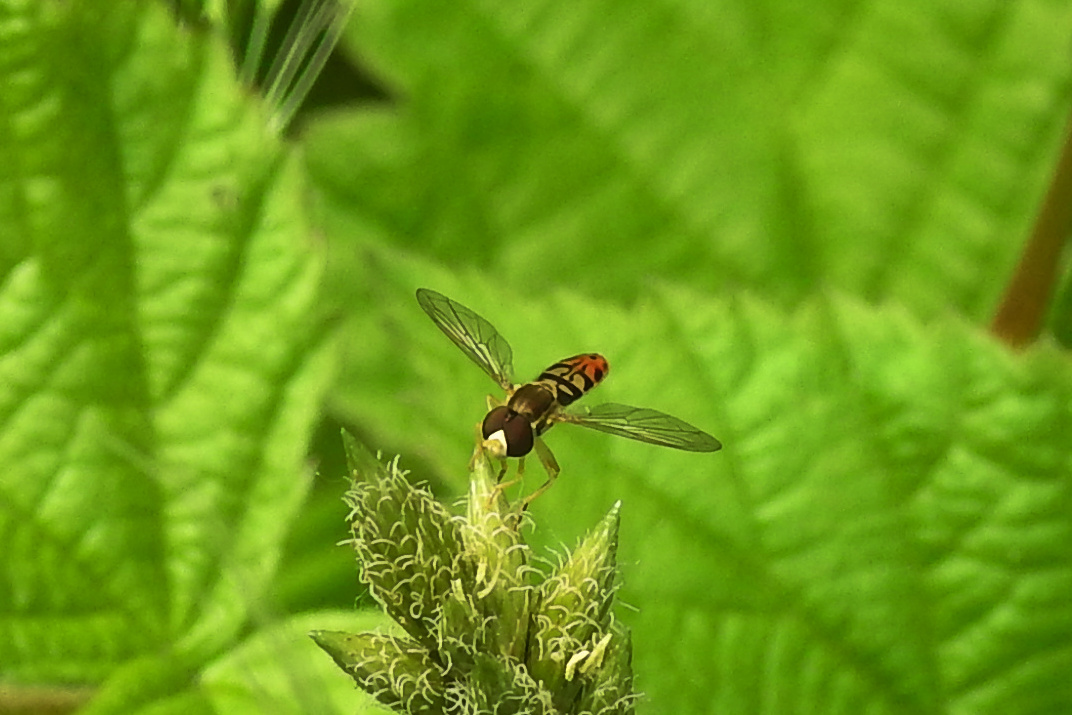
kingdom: Animalia
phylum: Arthropoda
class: Insecta
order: Diptera
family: Syrphidae
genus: Toxomerus
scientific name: Toxomerus marginatus
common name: Syrphid fly
